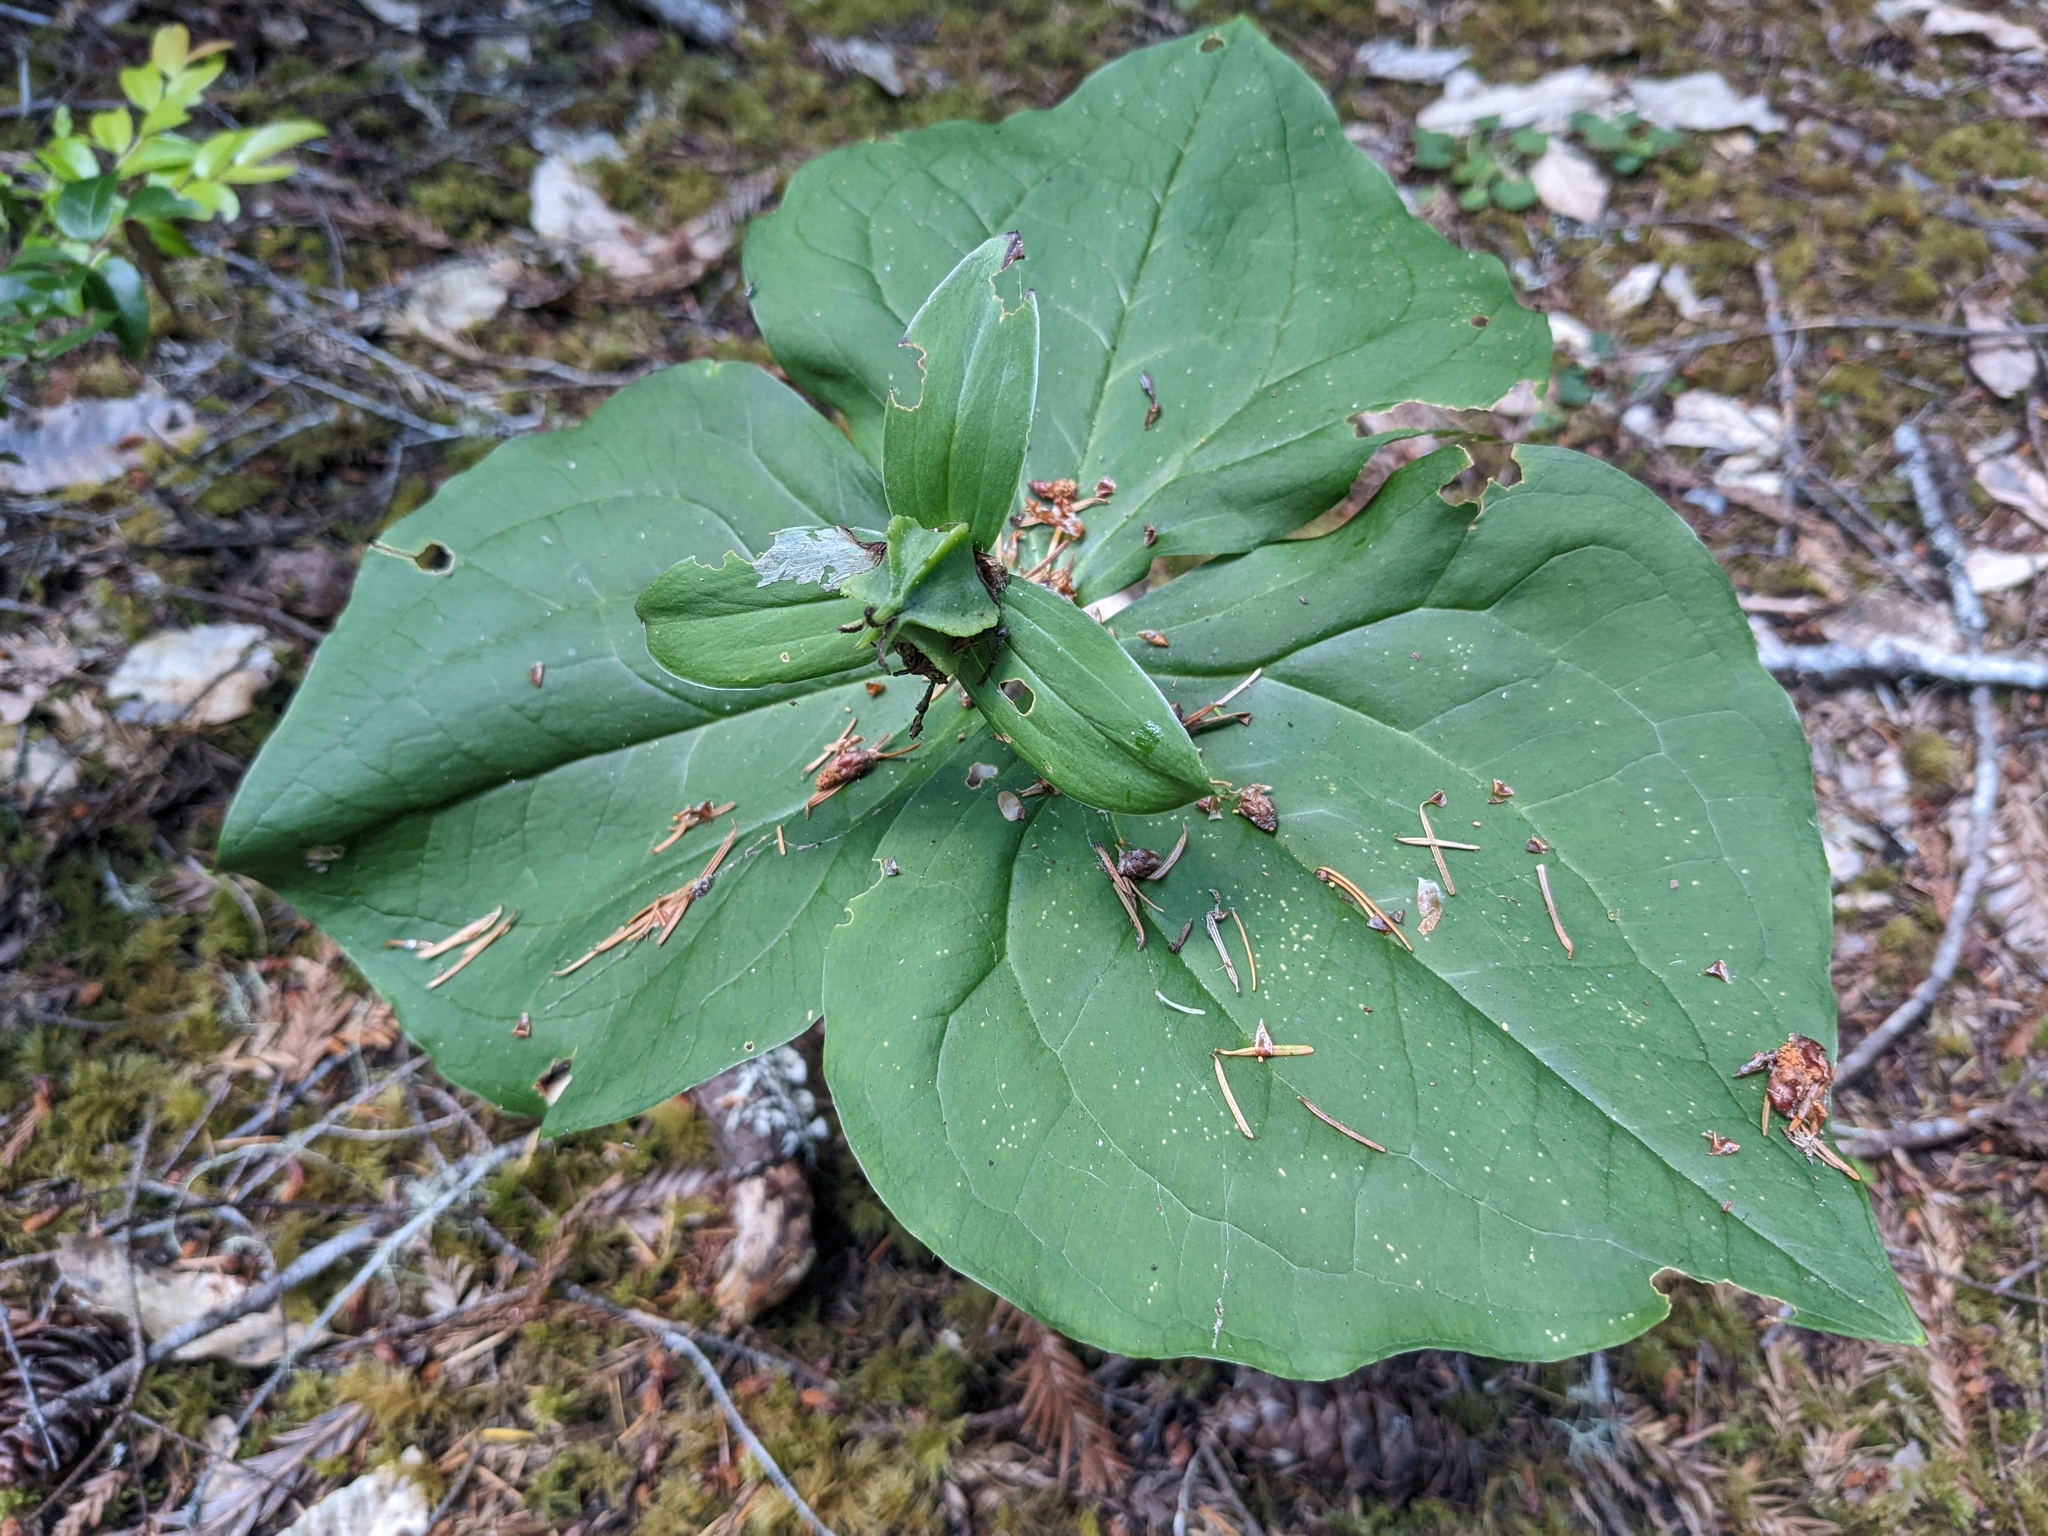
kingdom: Plantae
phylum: Tracheophyta
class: Liliopsida
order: Liliales
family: Melanthiaceae
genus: Trillium
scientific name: Trillium ovatum
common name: Pacific trillium
